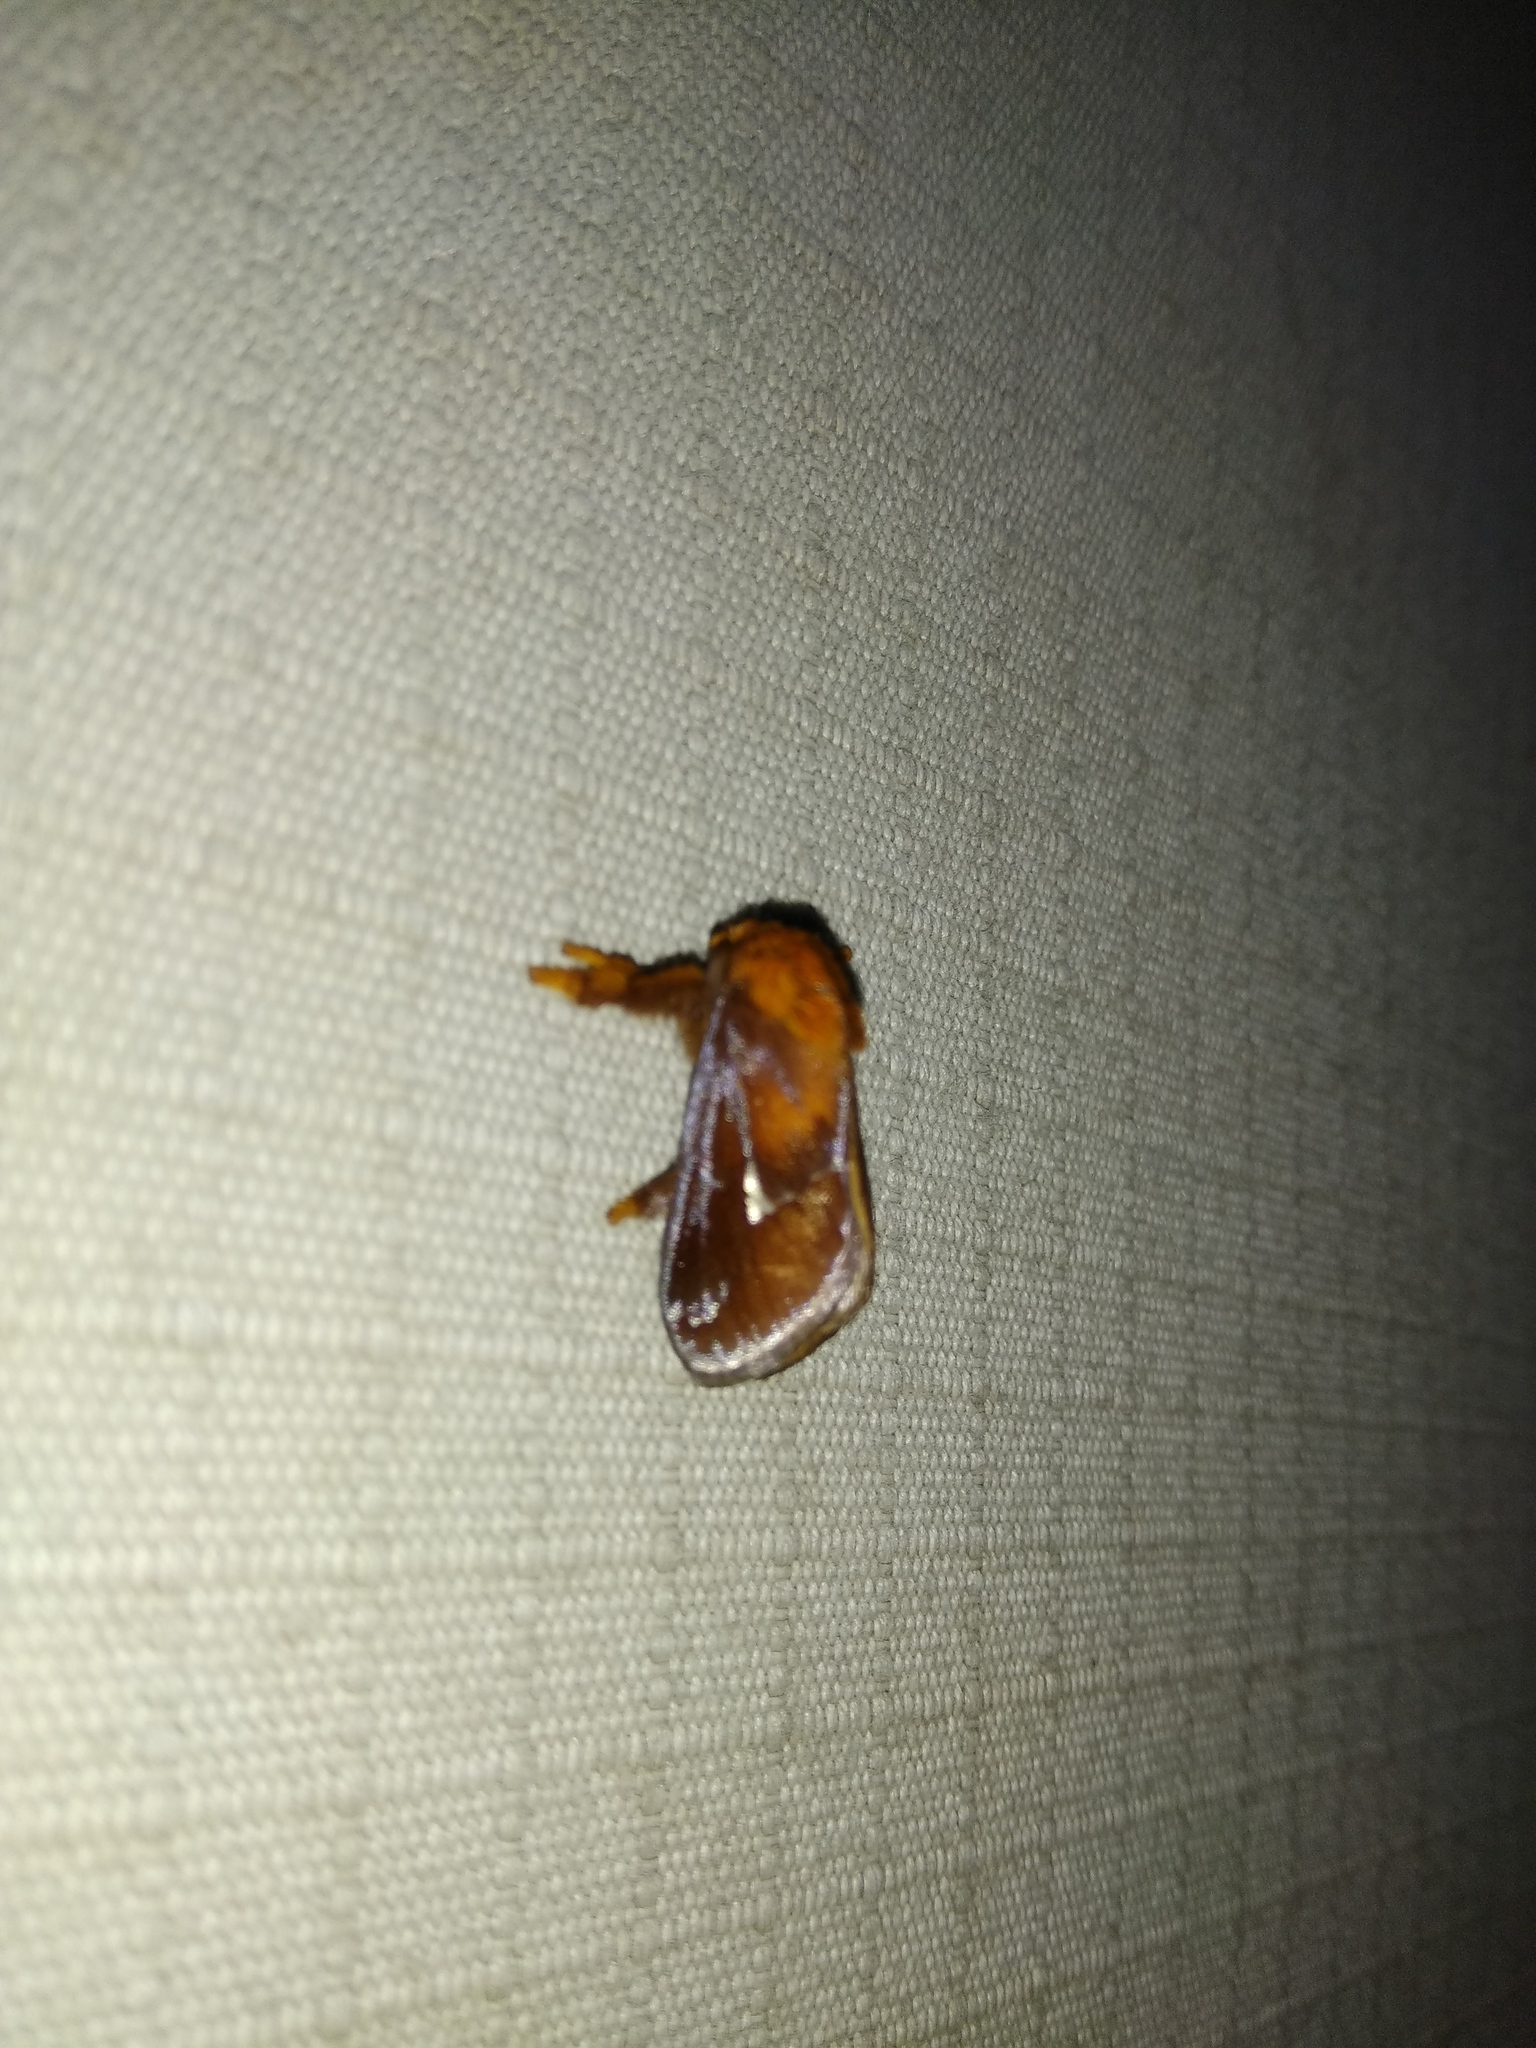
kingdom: Animalia
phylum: Arthropoda
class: Insecta
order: Lepidoptera
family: Limacodidae
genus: Miresa
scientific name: Miresa bracteata
